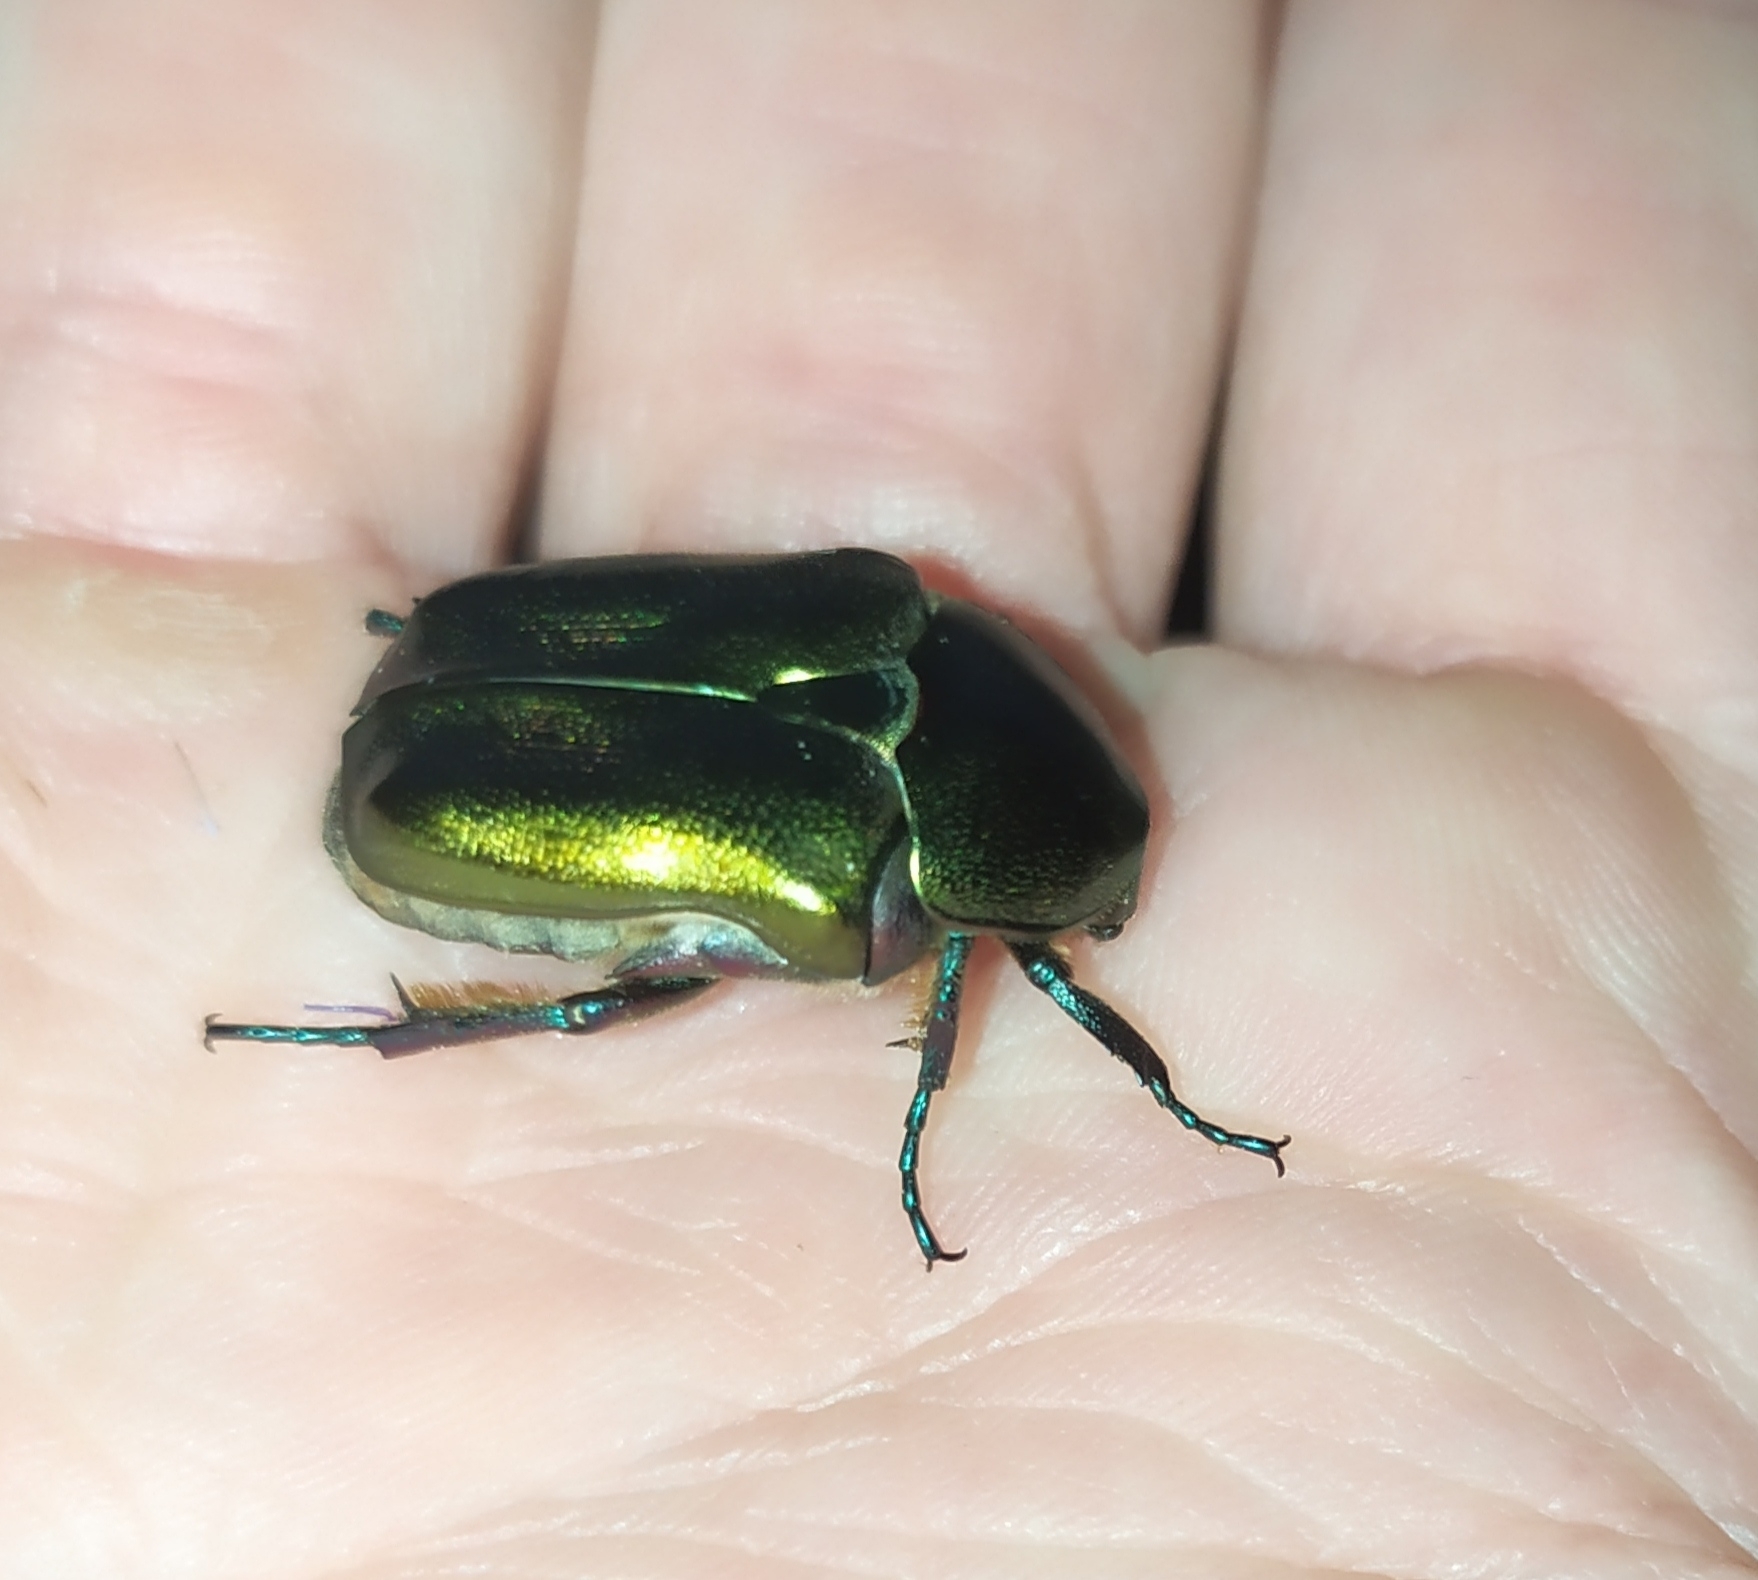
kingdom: Animalia
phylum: Arthropoda
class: Insecta
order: Coleoptera
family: Scarabaeidae
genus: Protaetia
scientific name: Protaetia cuprea
